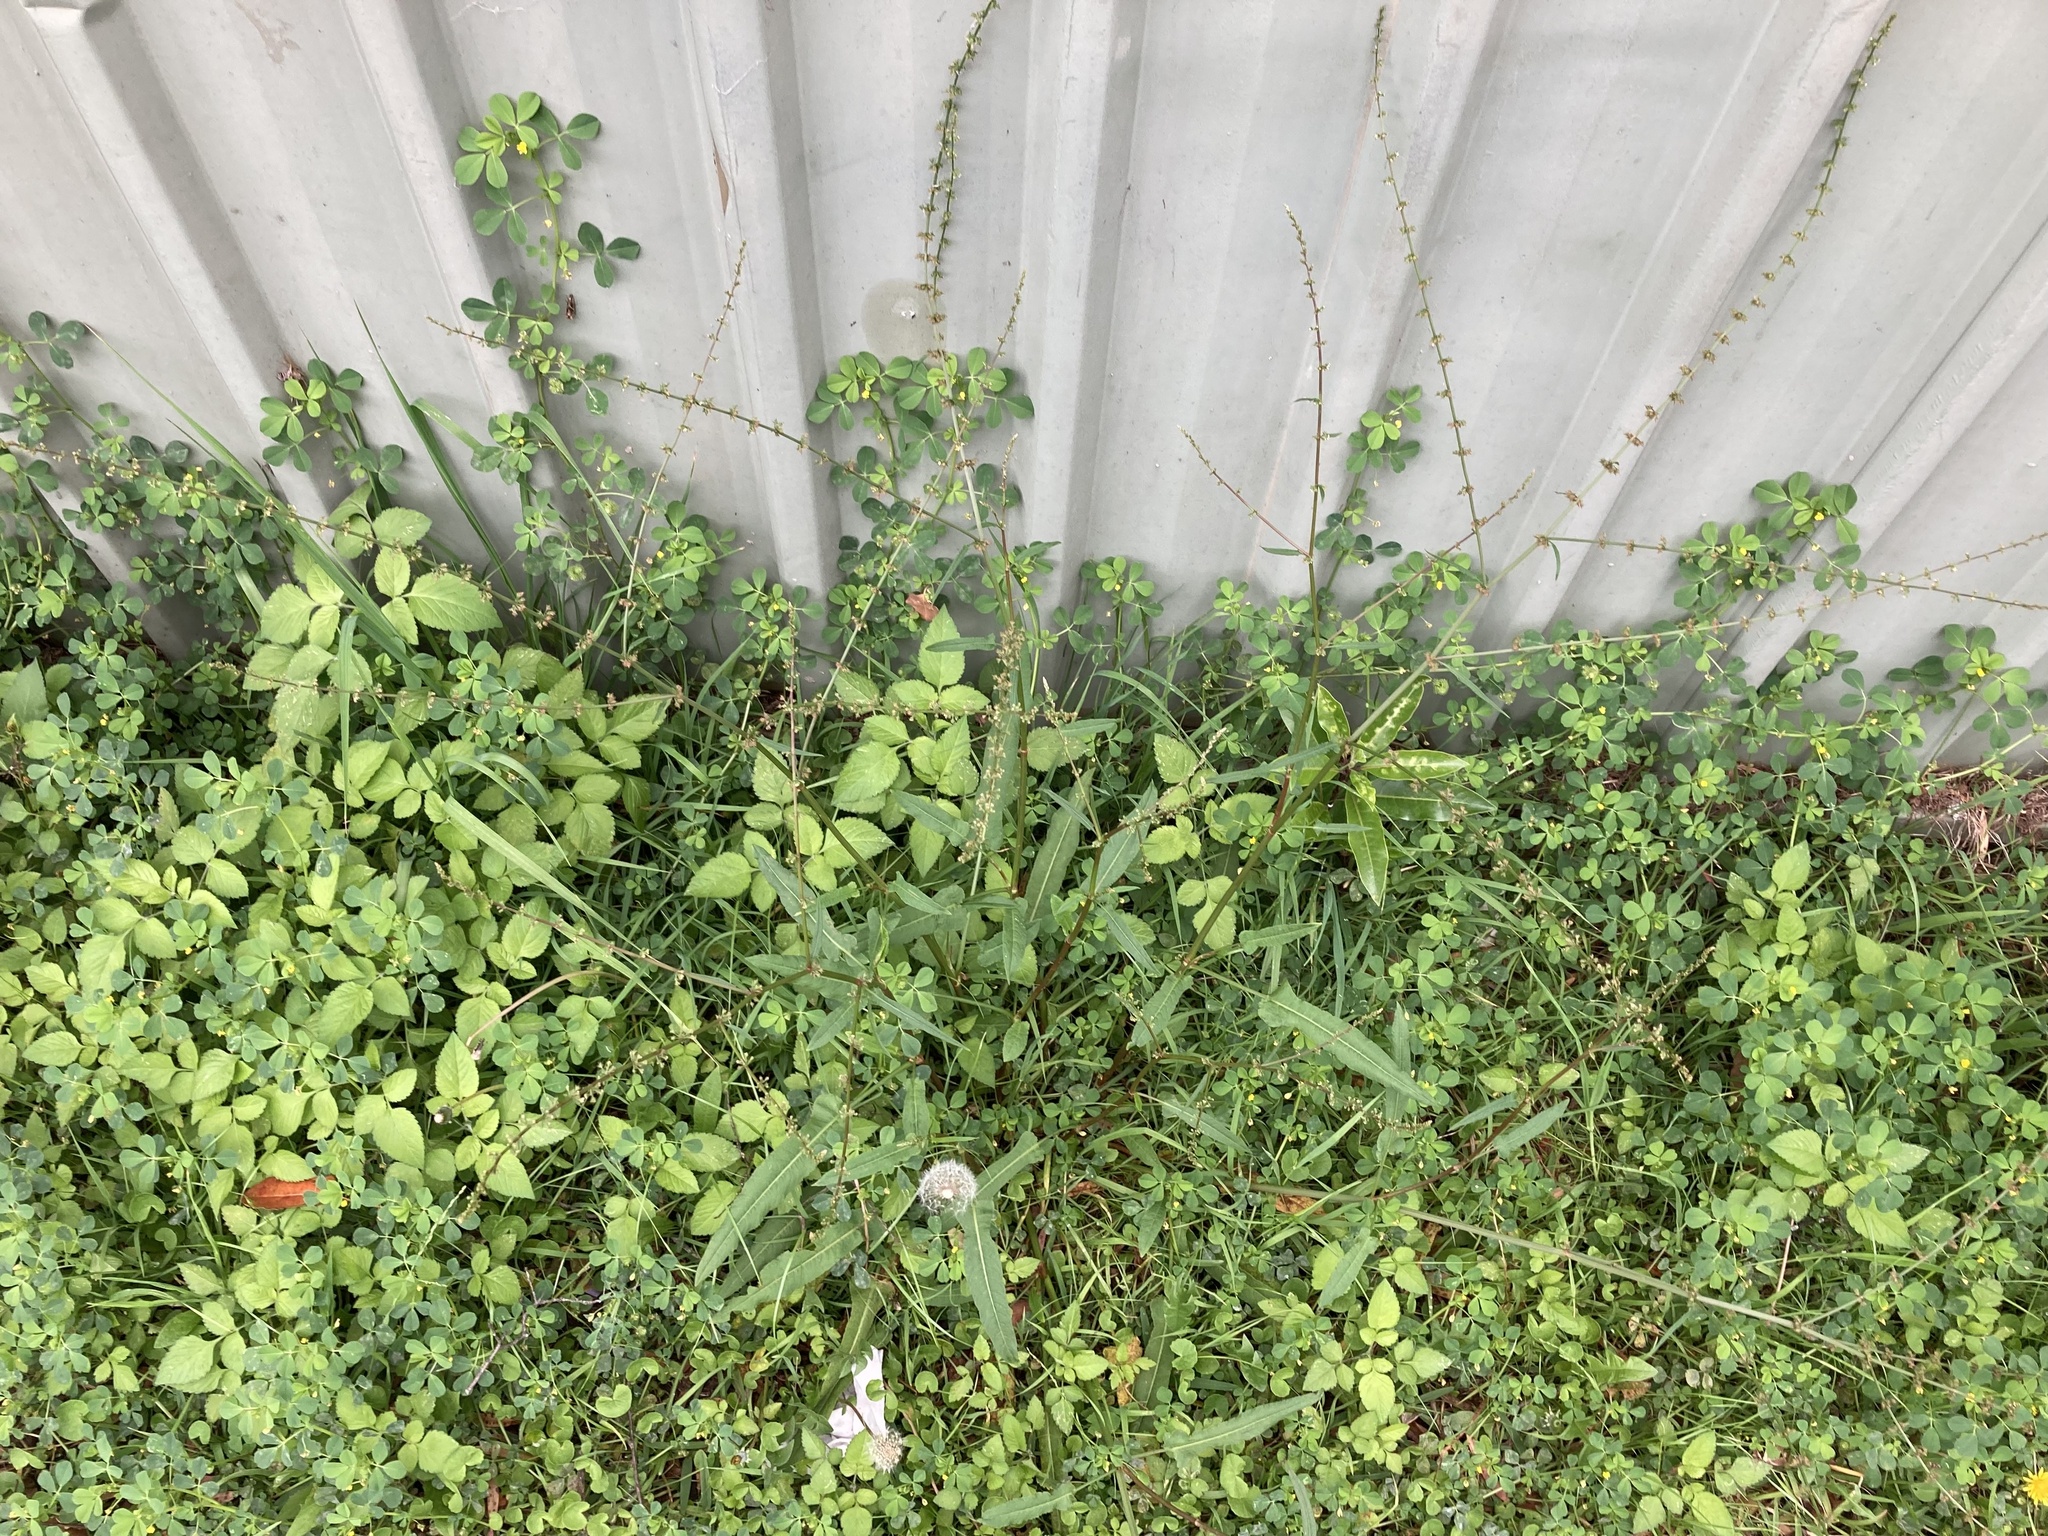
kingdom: Plantae
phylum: Tracheophyta
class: Magnoliopsida
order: Caryophyllales
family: Polygonaceae
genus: Rumex
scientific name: Rumex brownii
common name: Hooked dock
